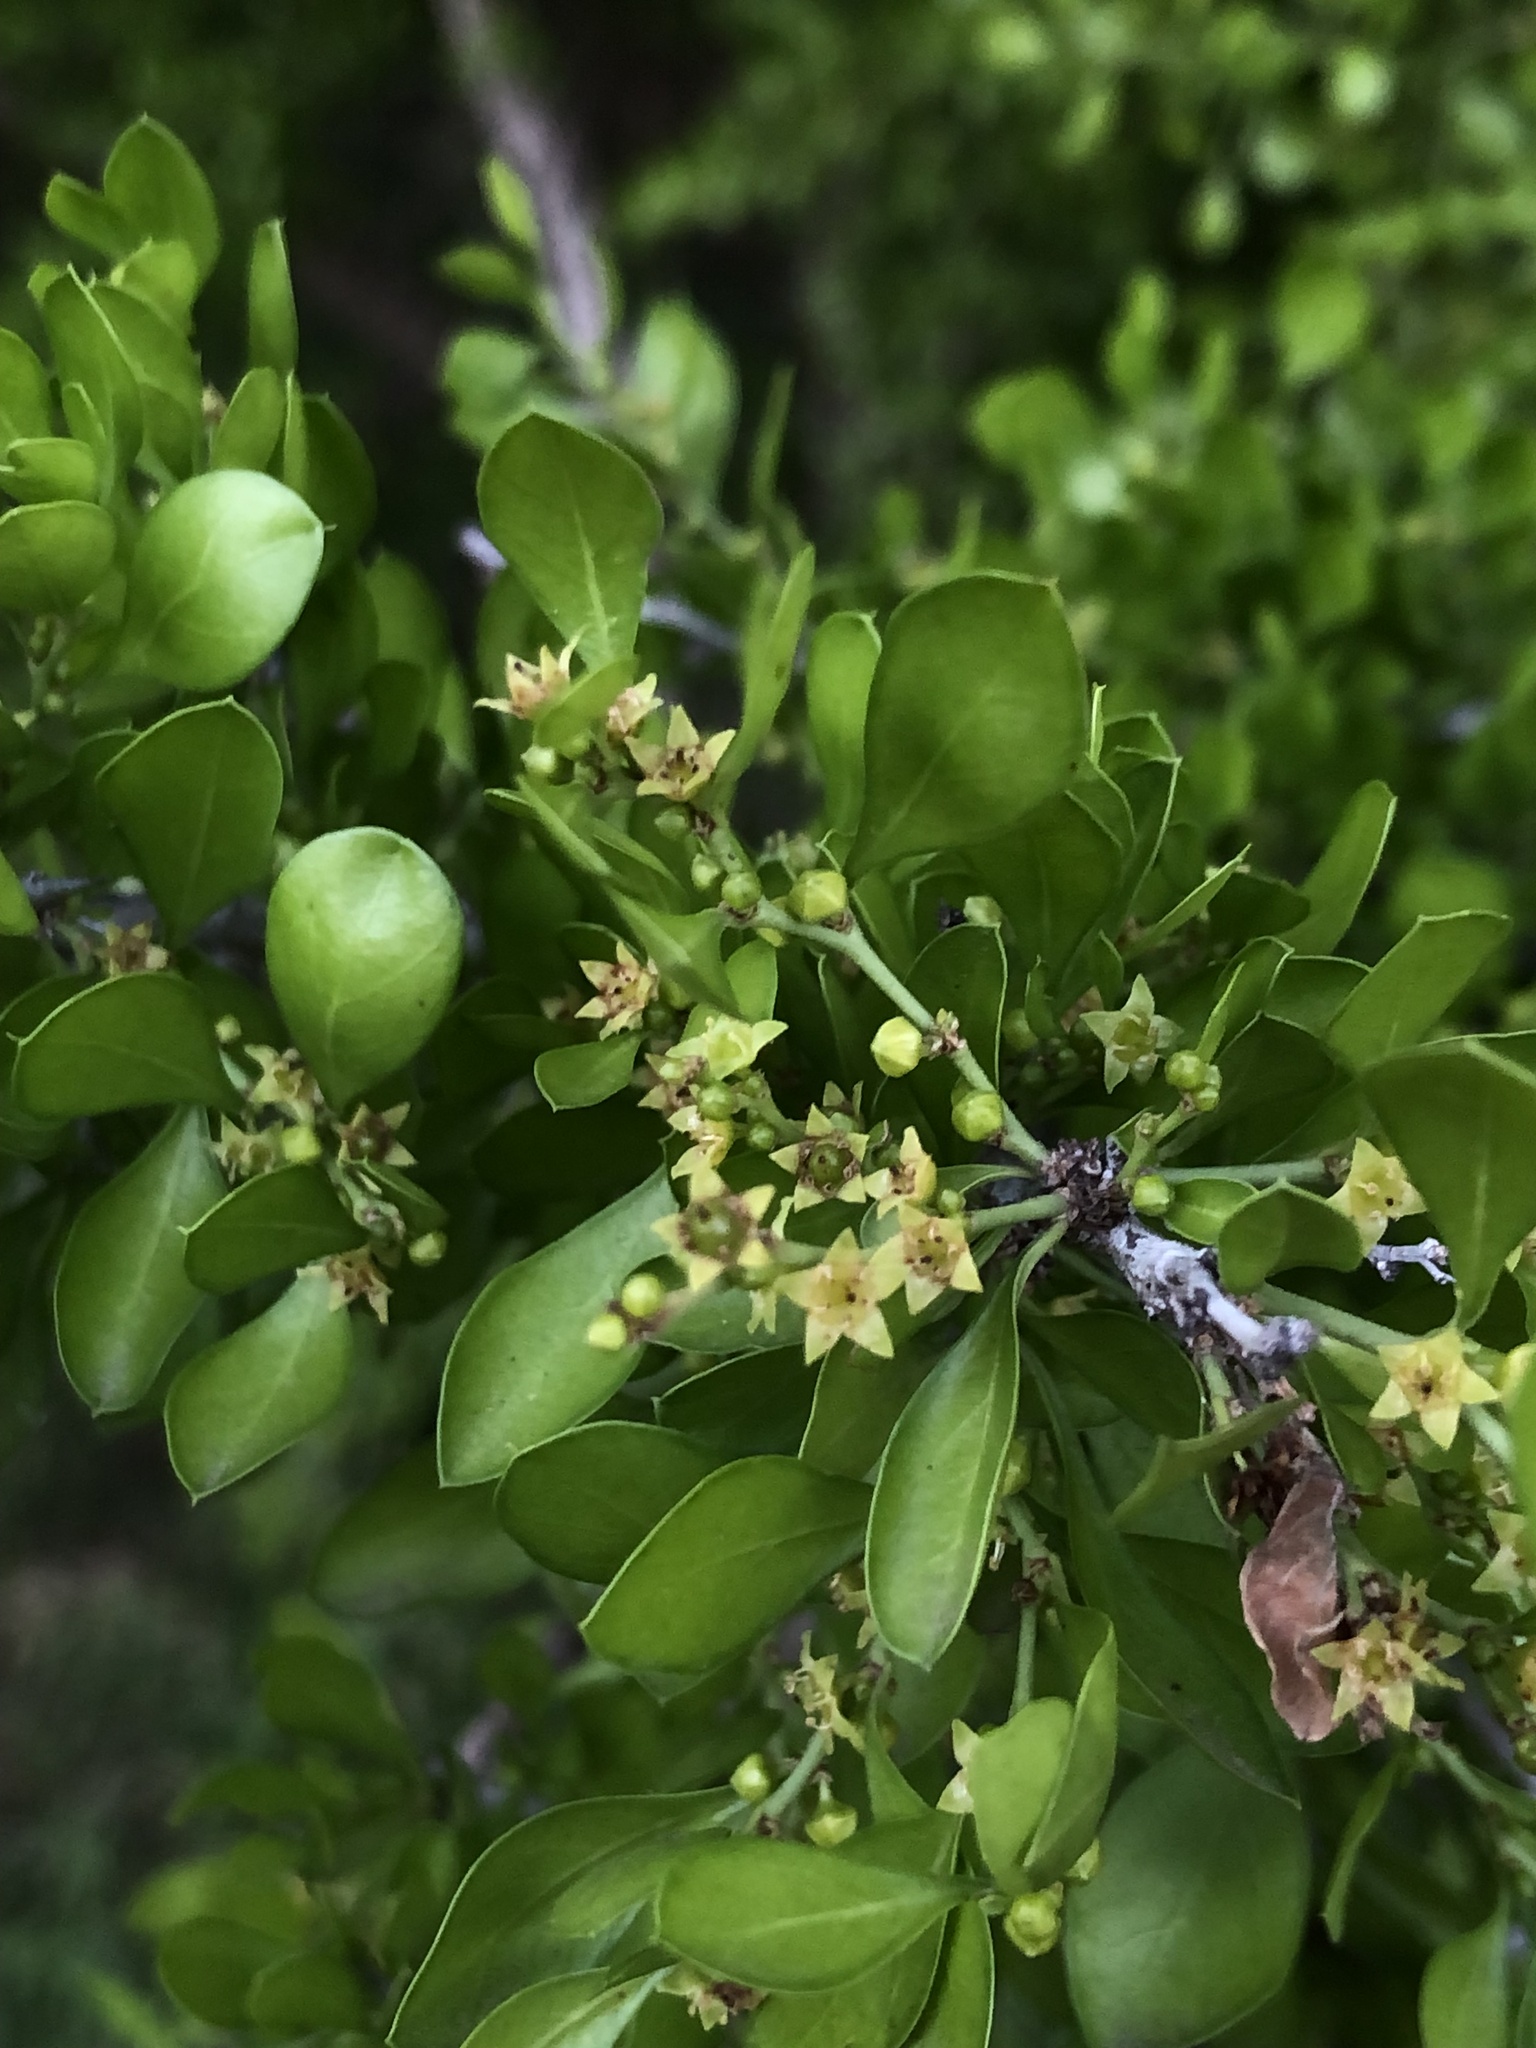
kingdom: Plantae
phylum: Tracheophyta
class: Magnoliopsida
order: Rosales
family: Rhamnaceae
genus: Condalia
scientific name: Condalia hookeri
